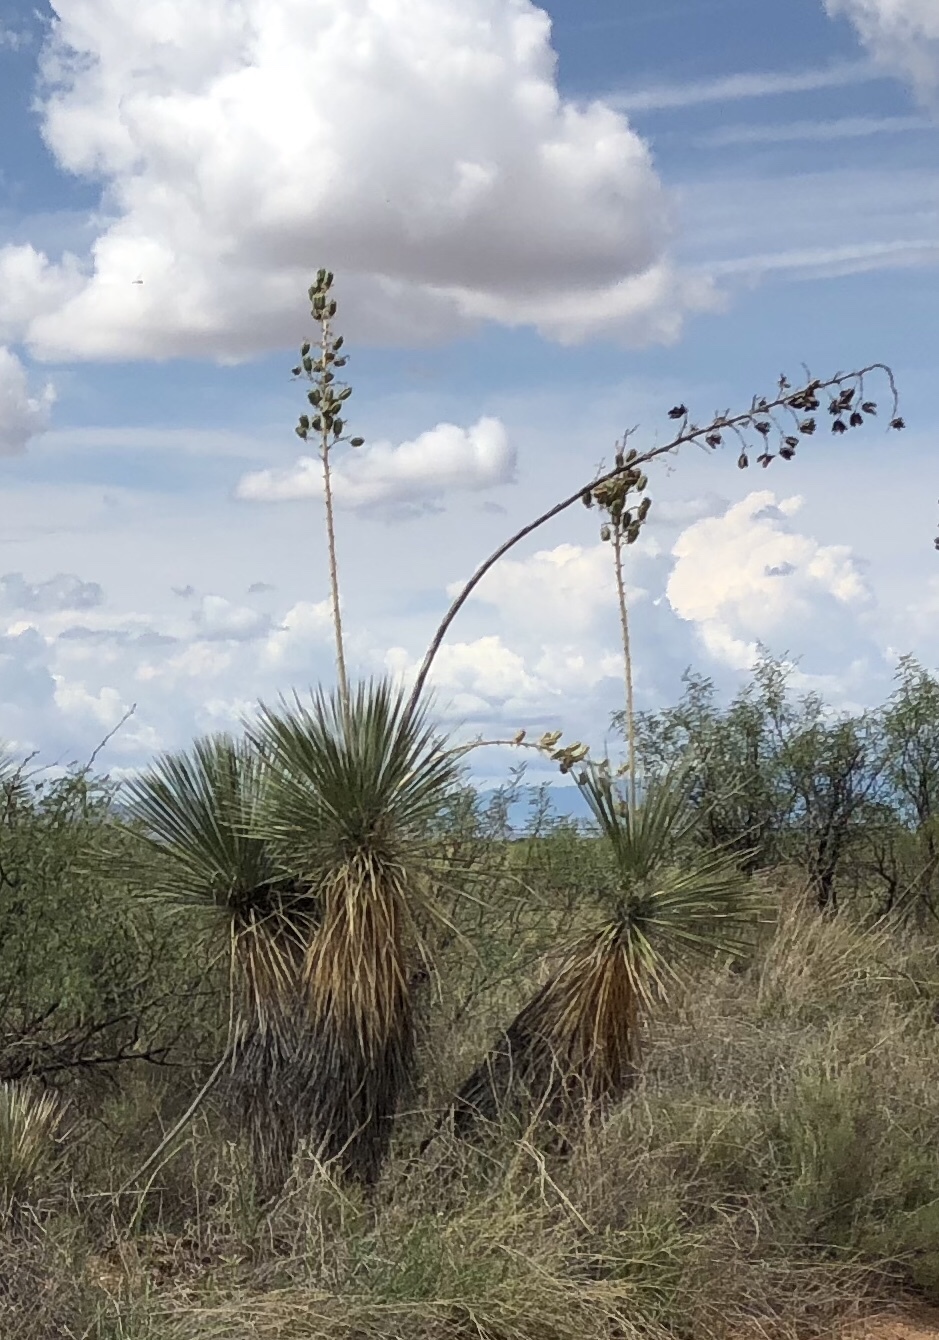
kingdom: Plantae
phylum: Tracheophyta
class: Liliopsida
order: Asparagales
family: Asparagaceae
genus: Yucca
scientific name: Yucca elata
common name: Palmella
